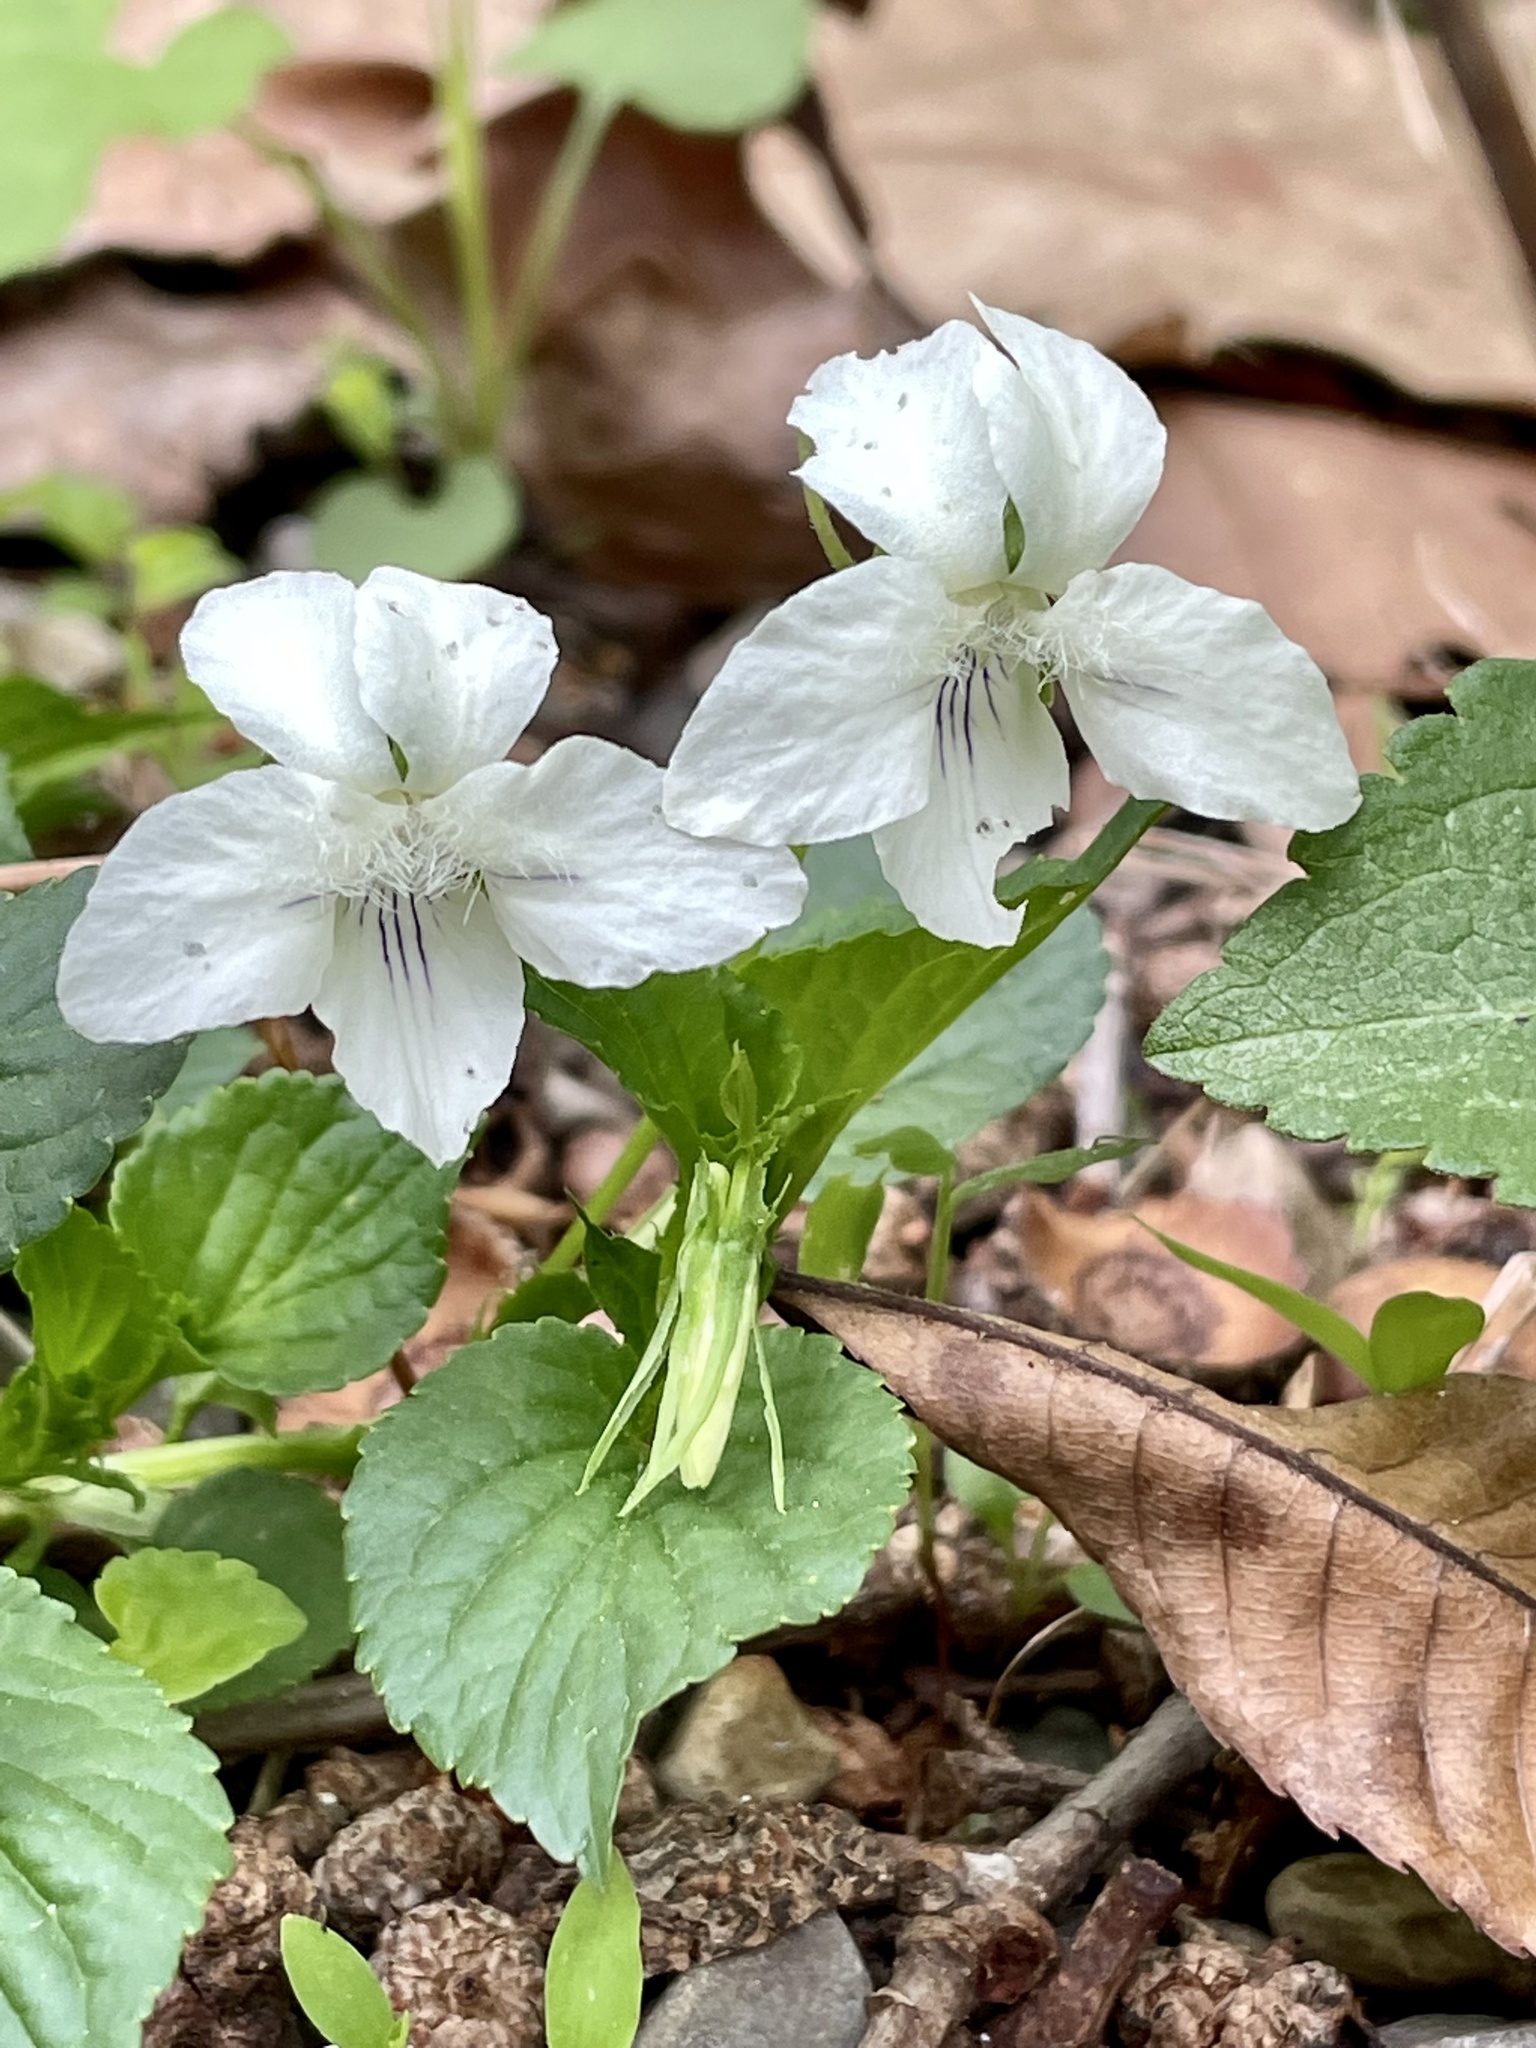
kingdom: Plantae
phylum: Tracheophyta
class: Magnoliopsida
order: Malpighiales
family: Violaceae
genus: Viola
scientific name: Viola striata
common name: Cream violet
